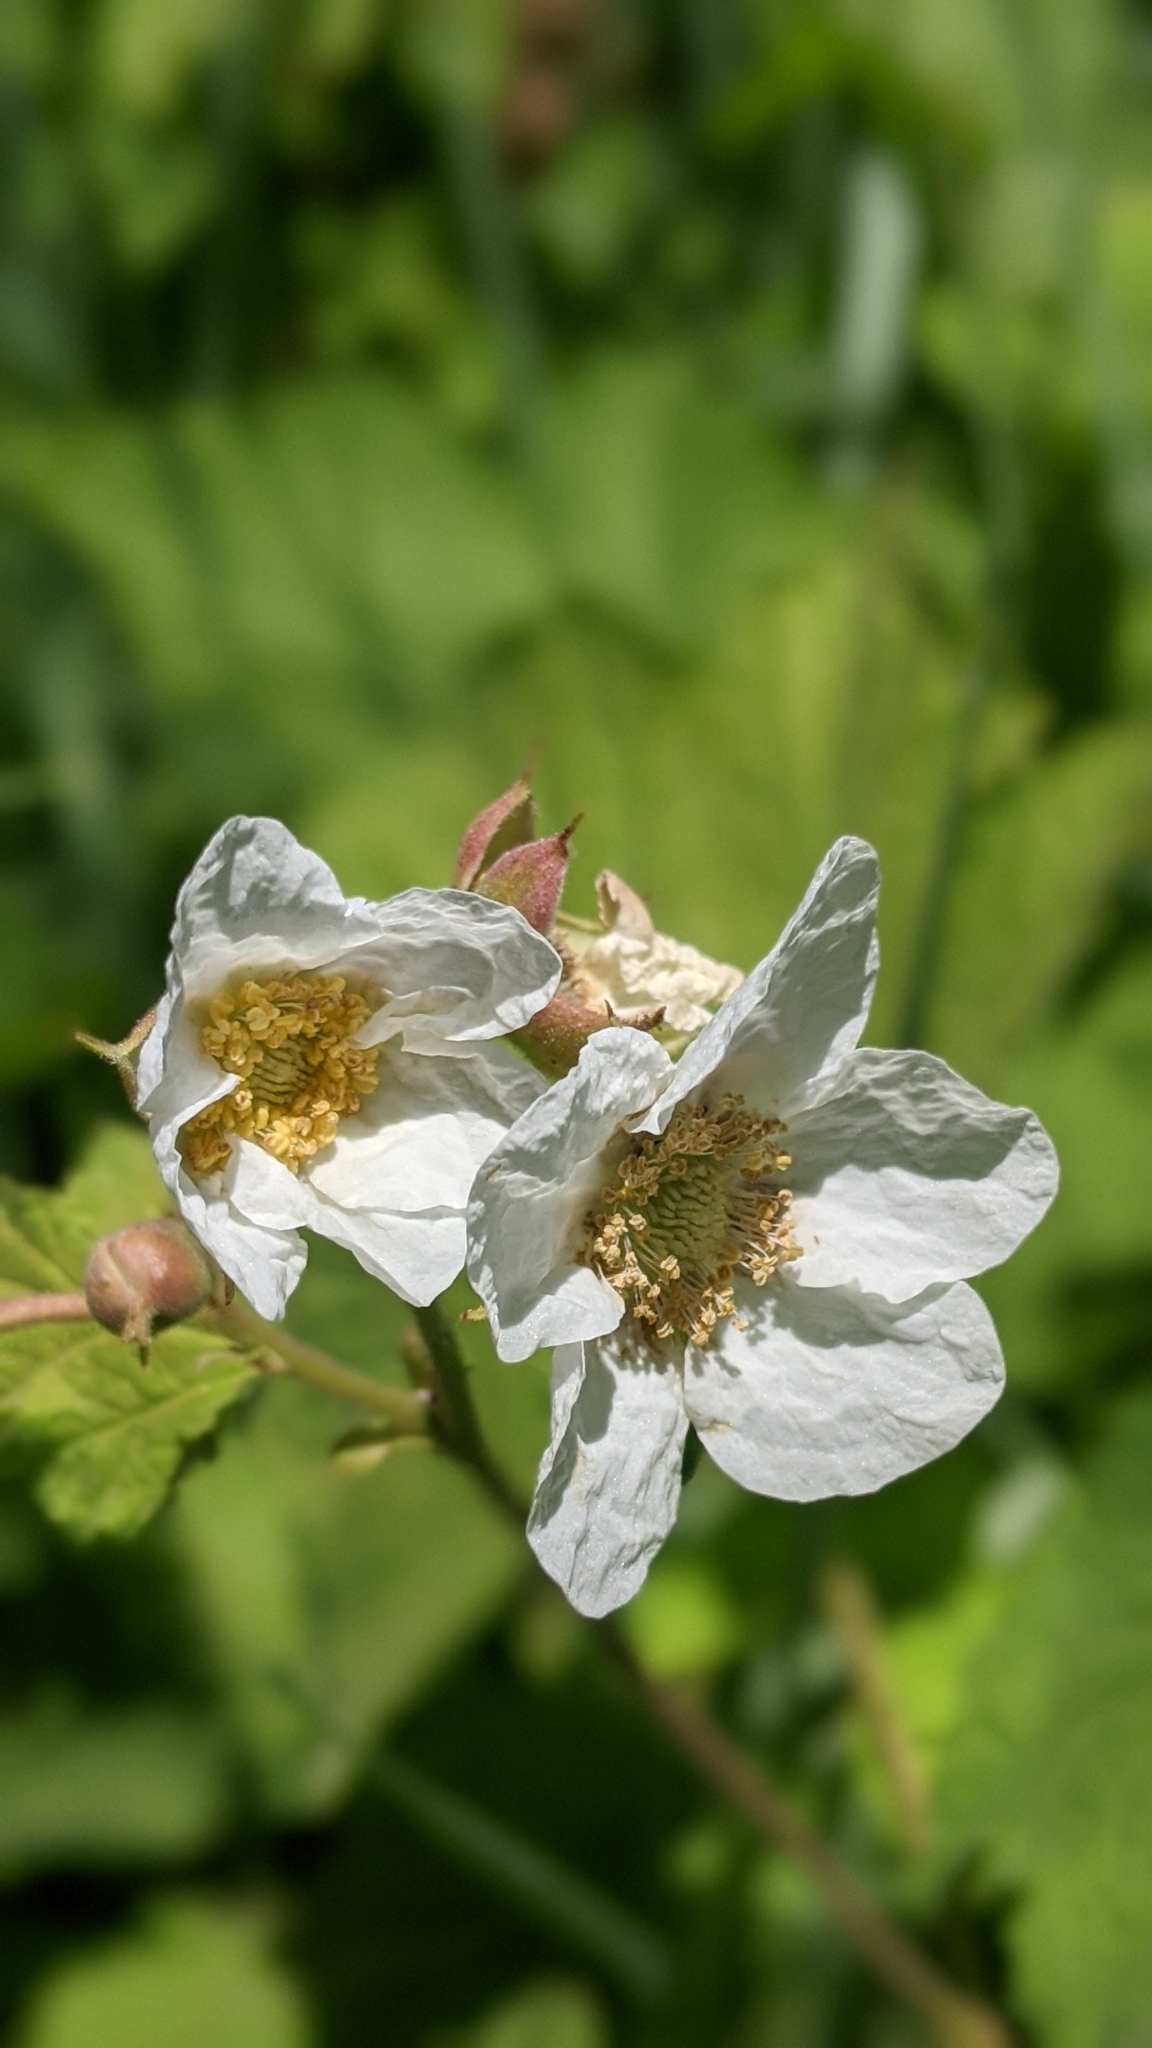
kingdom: Plantae
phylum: Tracheophyta
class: Magnoliopsida
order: Rosales
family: Rosaceae
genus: Rubus
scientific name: Rubus parviflorus
